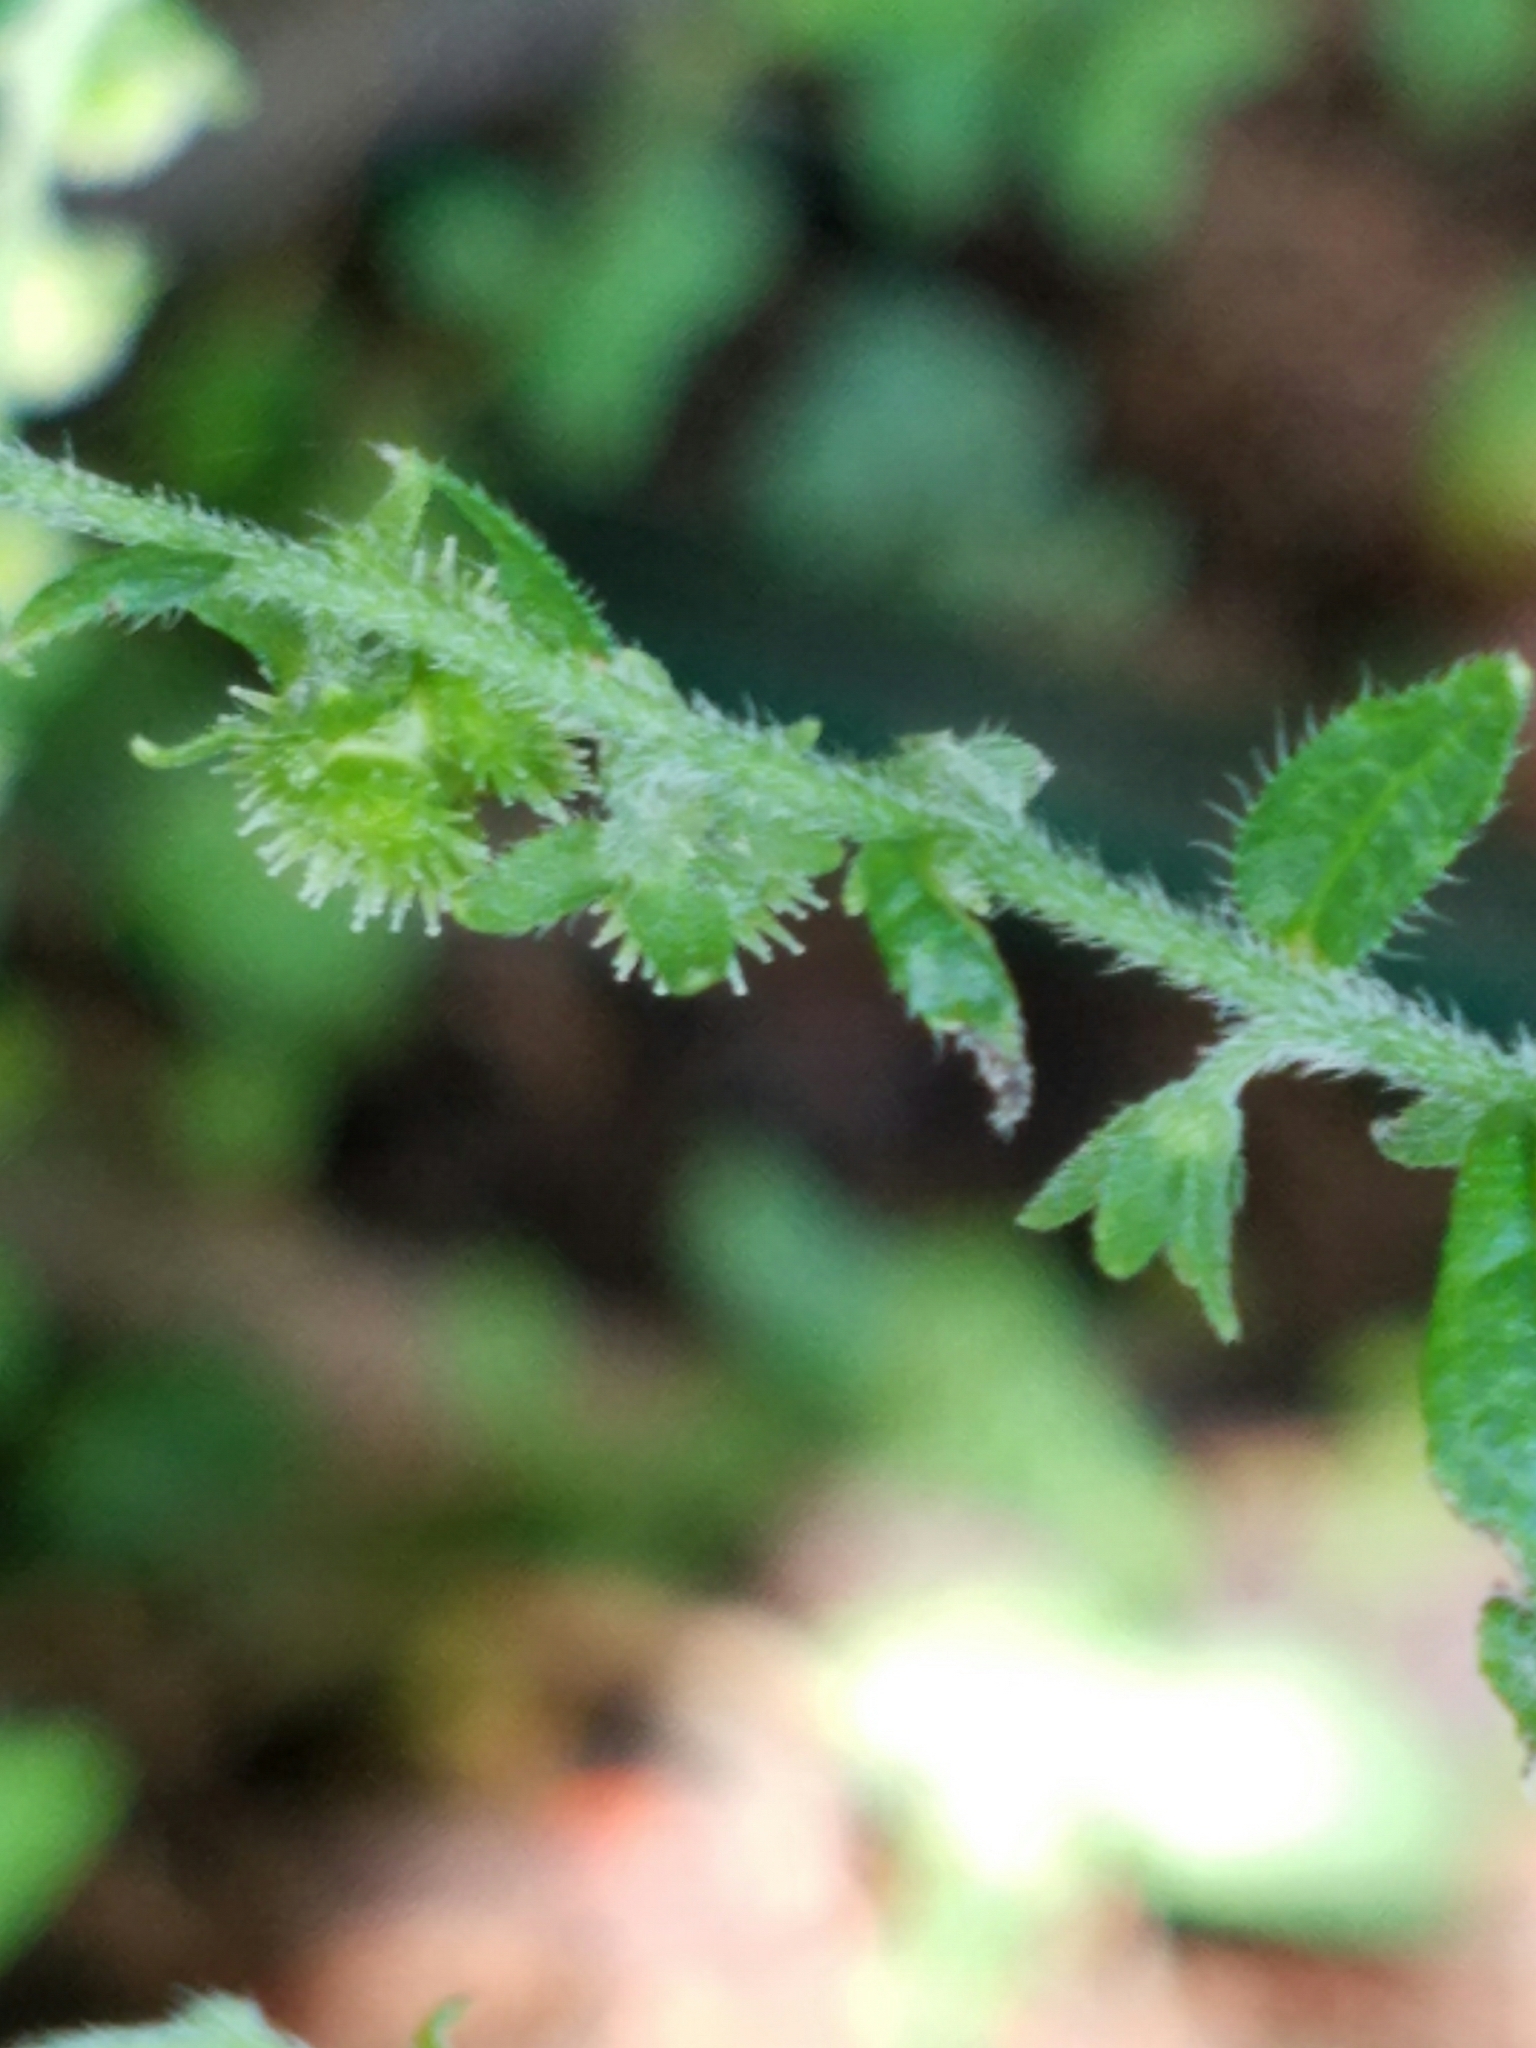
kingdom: Plantae
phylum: Tracheophyta
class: Magnoliopsida
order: Boraginales
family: Boraginaceae
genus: Hackelia
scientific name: Hackelia virginiana
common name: Beggar's-lice
